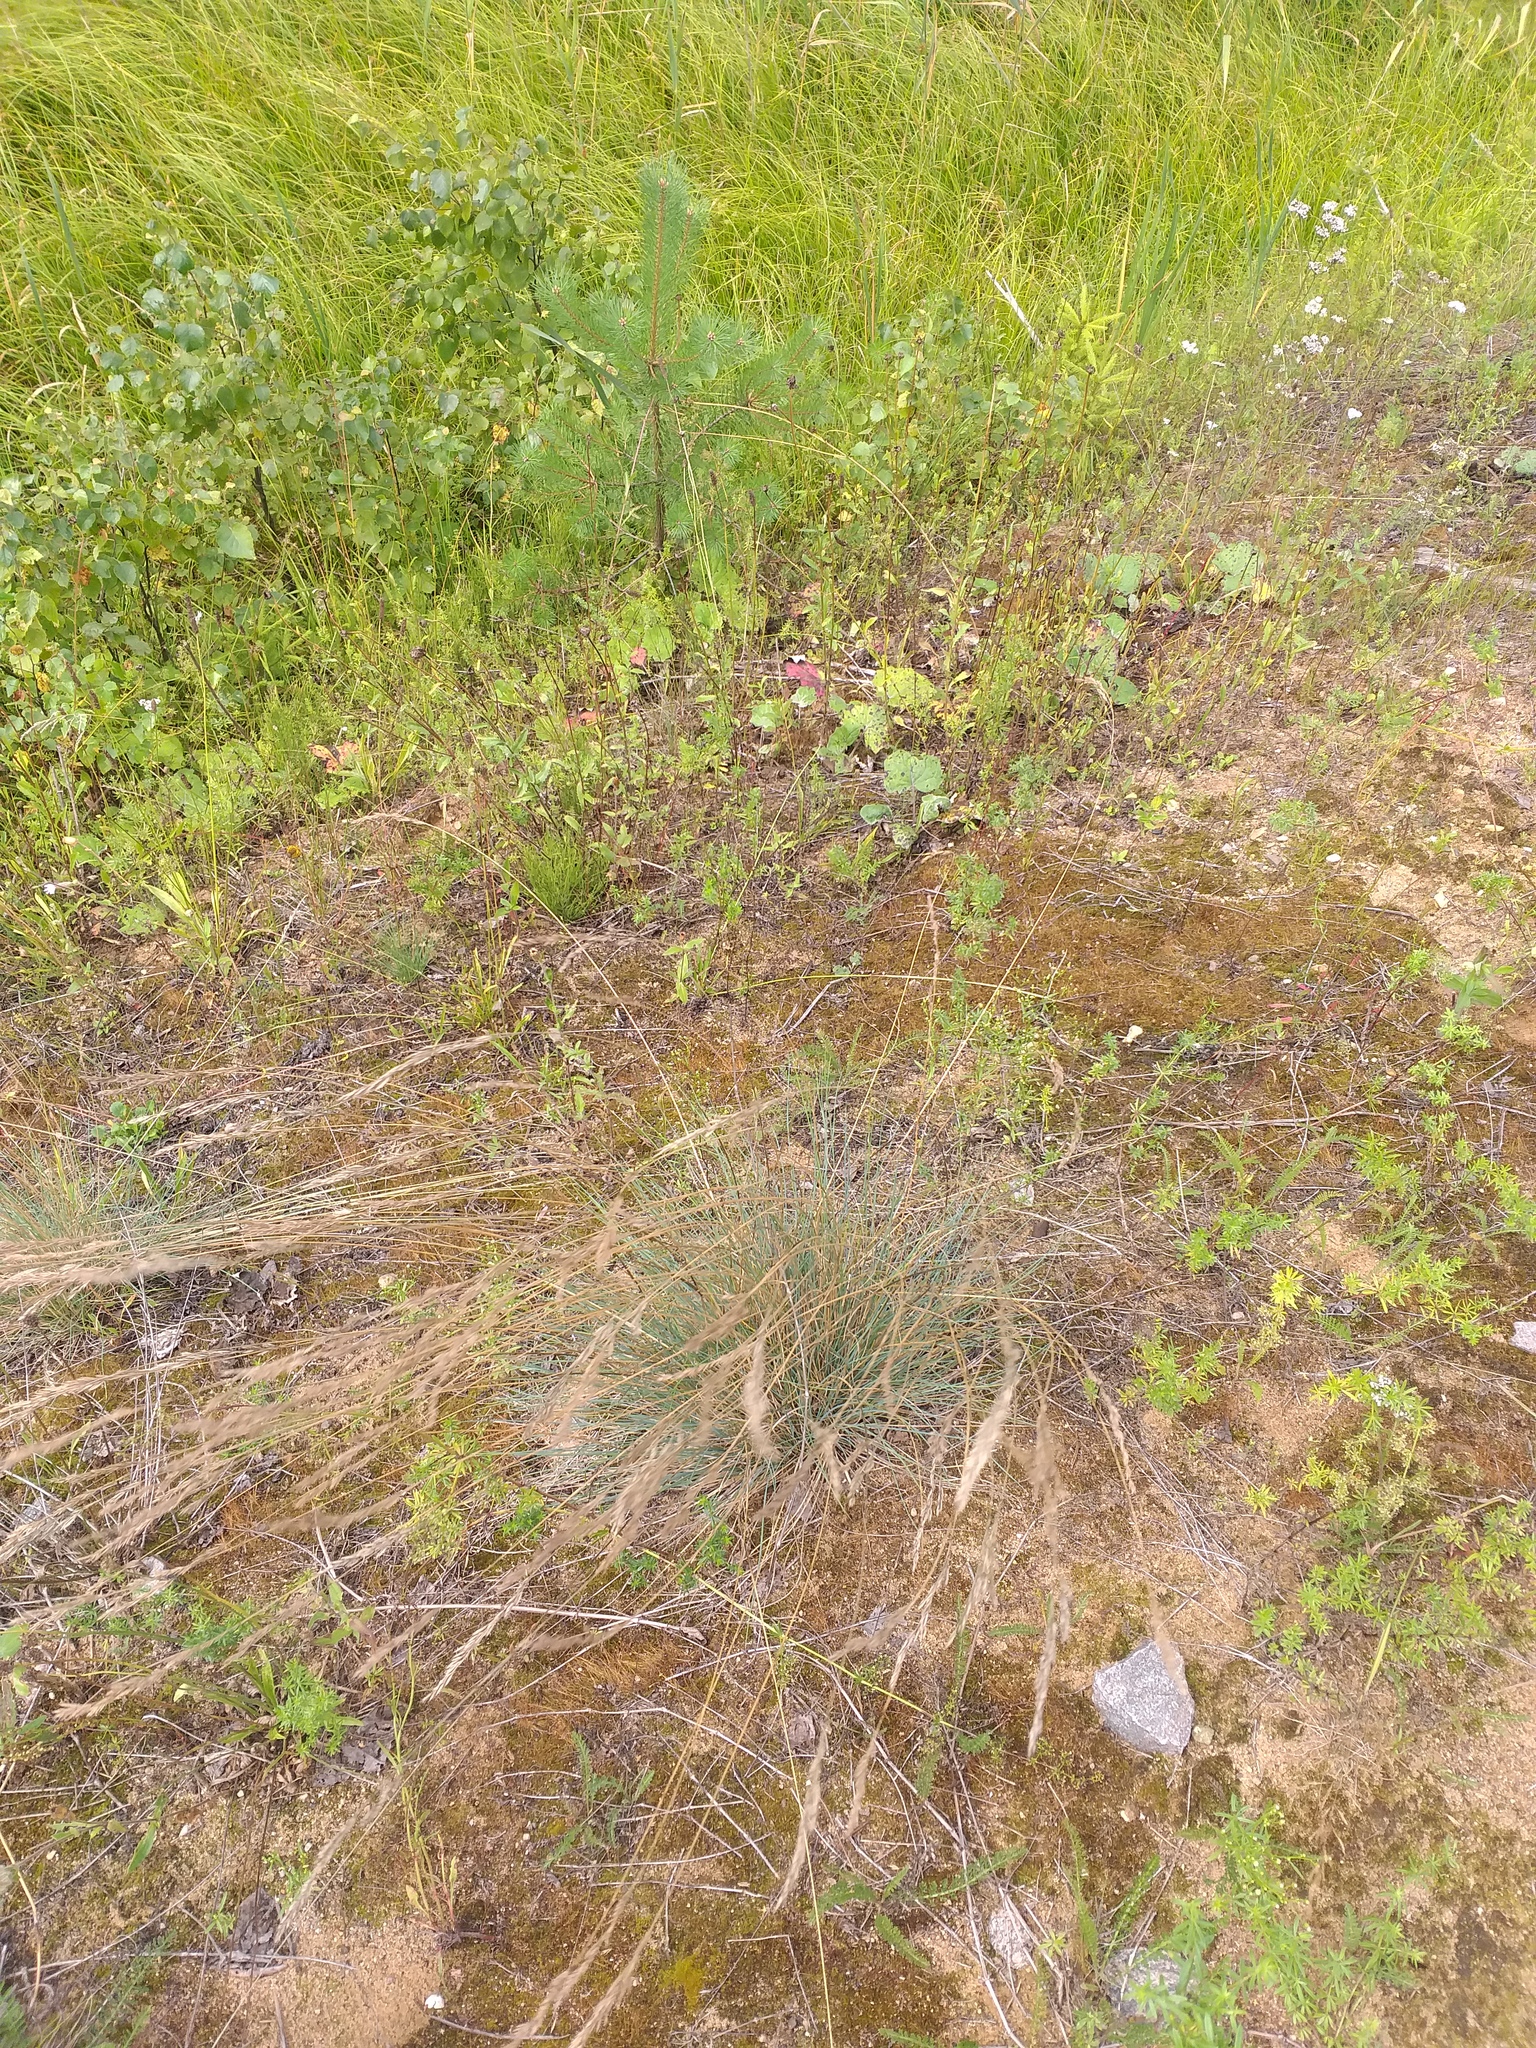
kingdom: Plantae
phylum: Tracheophyta
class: Liliopsida
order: Poales
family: Poaceae
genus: Festuca
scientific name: Festuca trachyphylla
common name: Hard fescue
